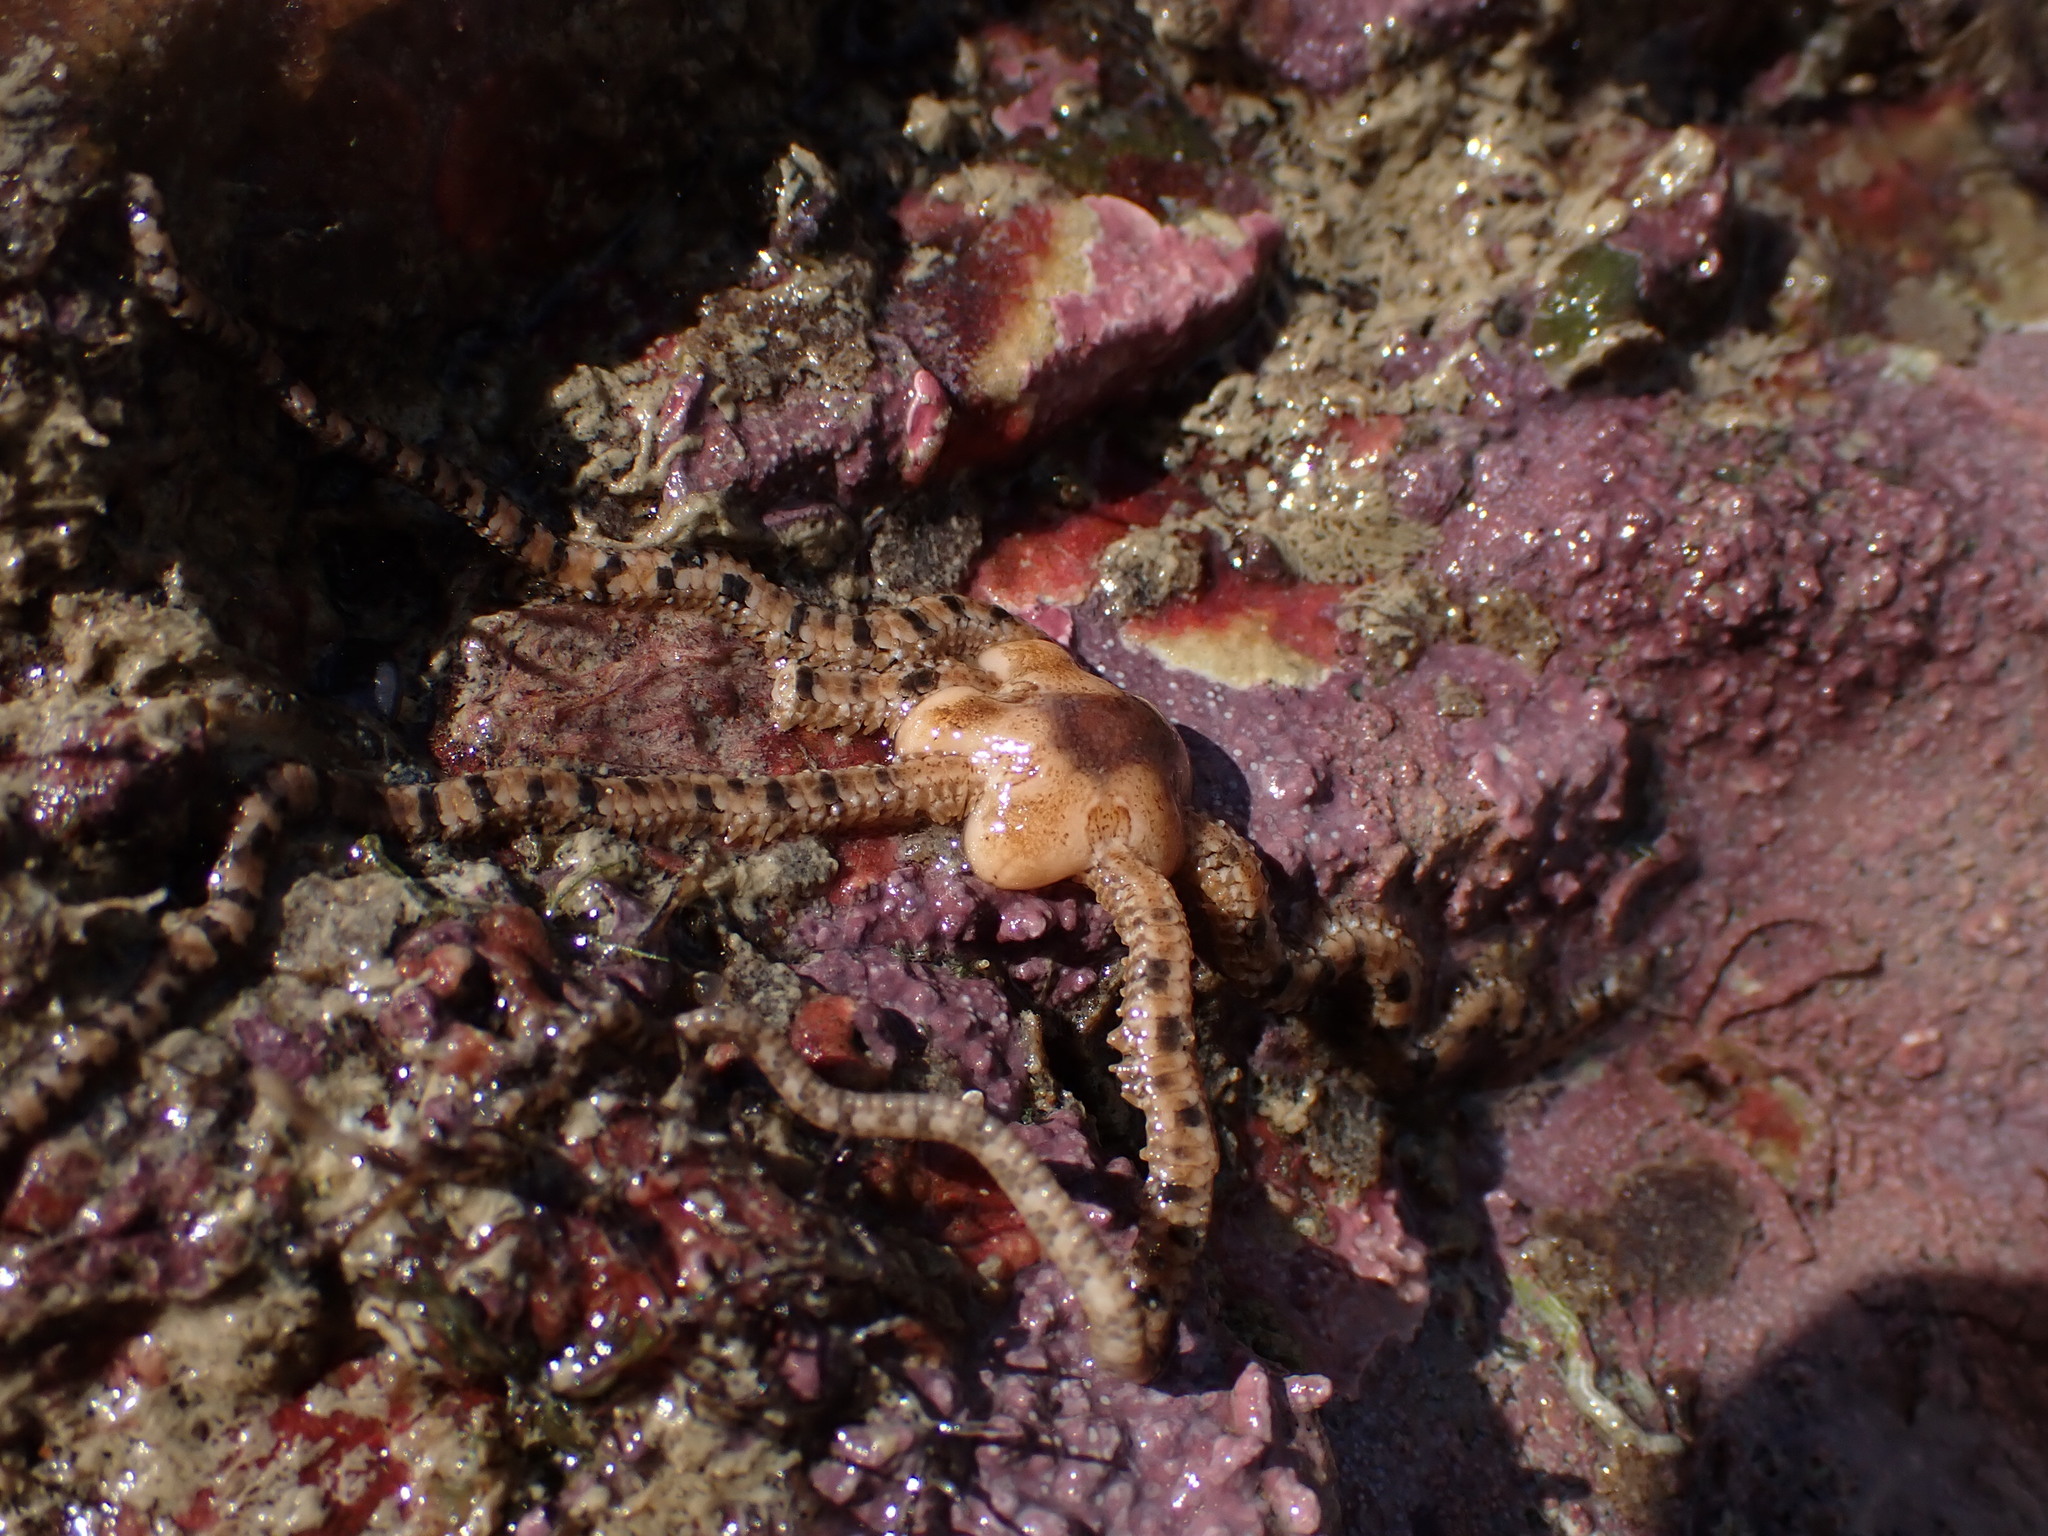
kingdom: Animalia
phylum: Echinodermata
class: Ophiuroidea
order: Amphilepidida
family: Ophiactidae
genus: Ophiactis
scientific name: Ophiactis resiliens
